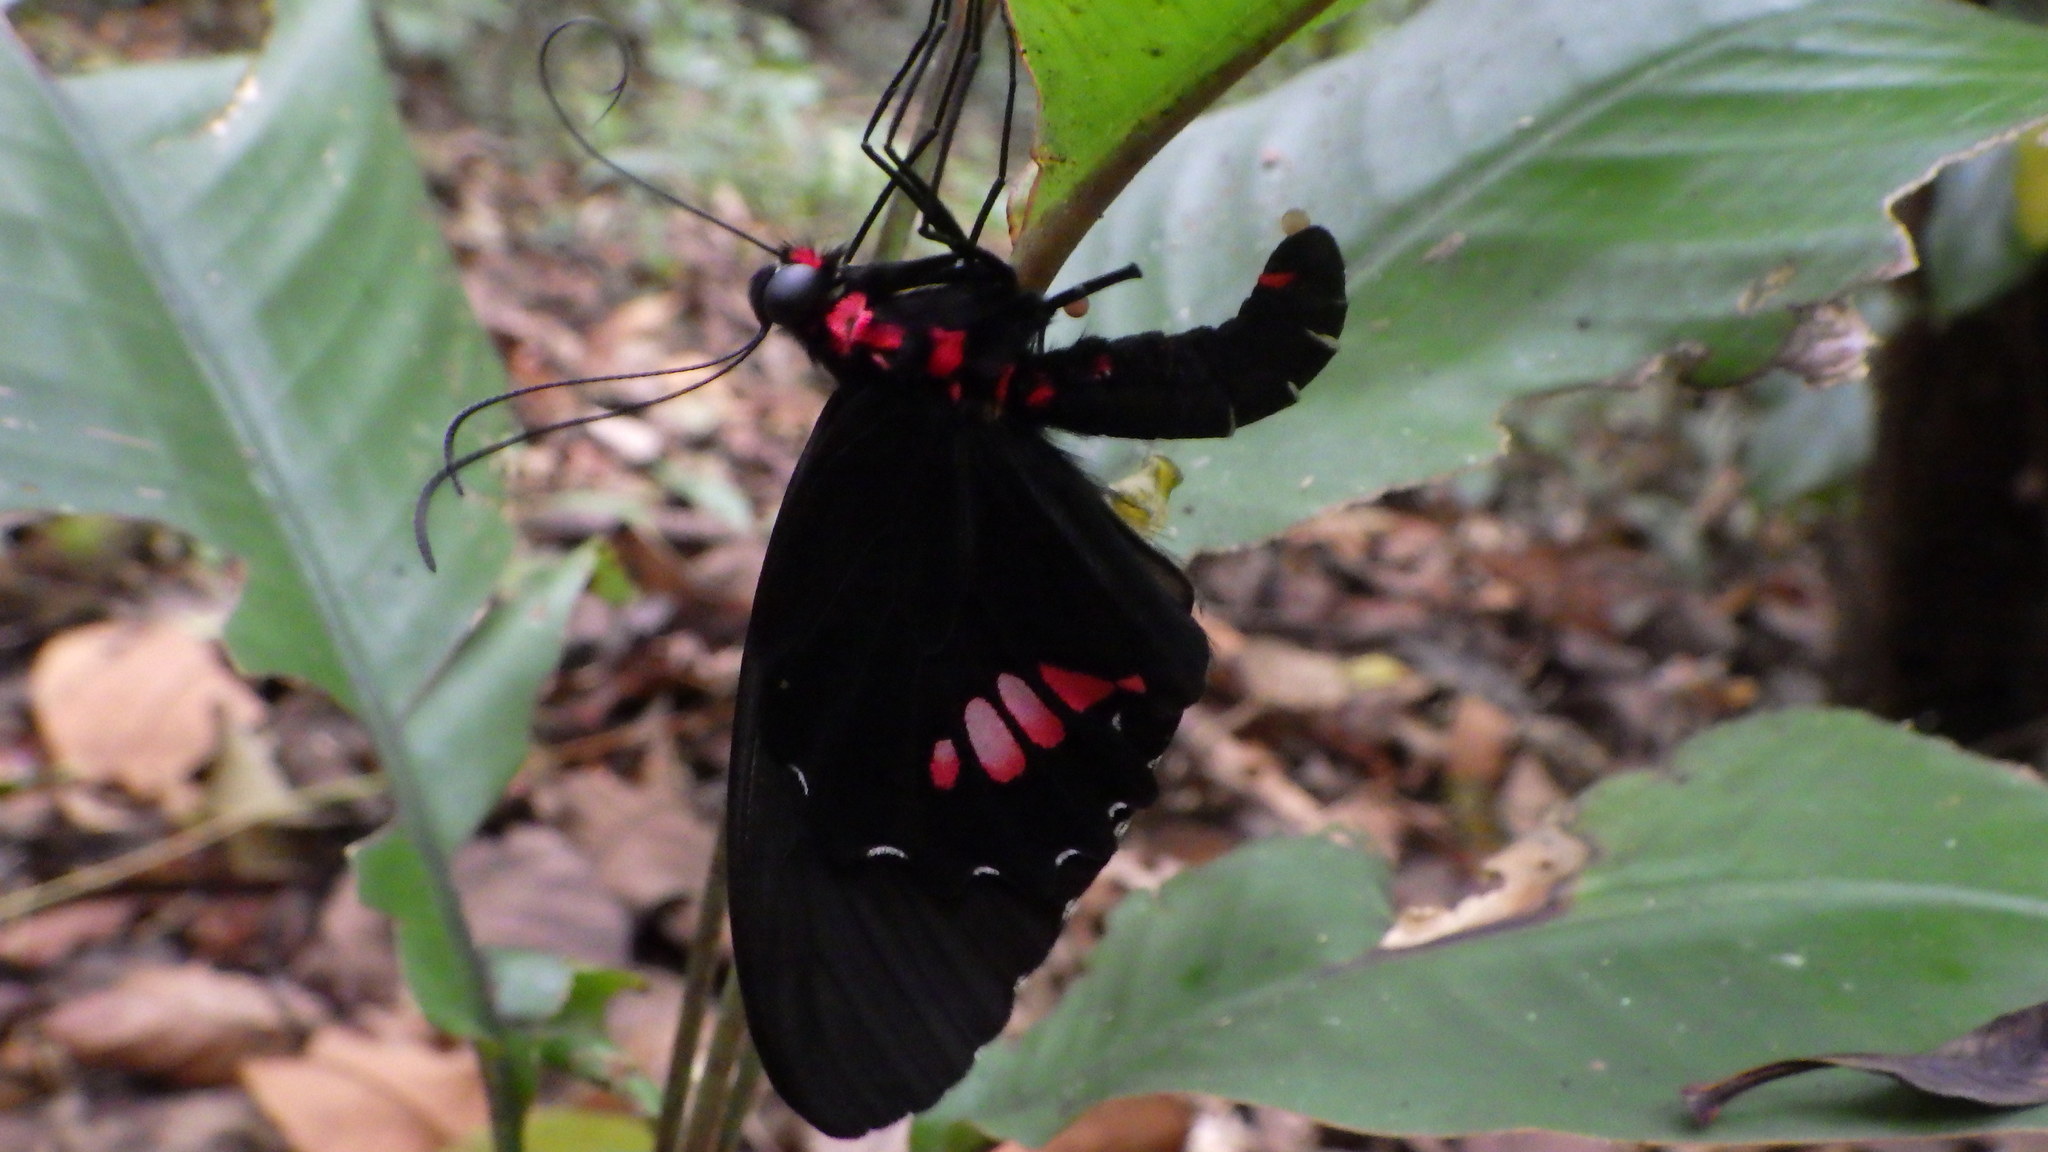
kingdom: Animalia
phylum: Arthropoda
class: Insecta
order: Lepidoptera
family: Papilionidae
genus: Parides
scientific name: Parides
